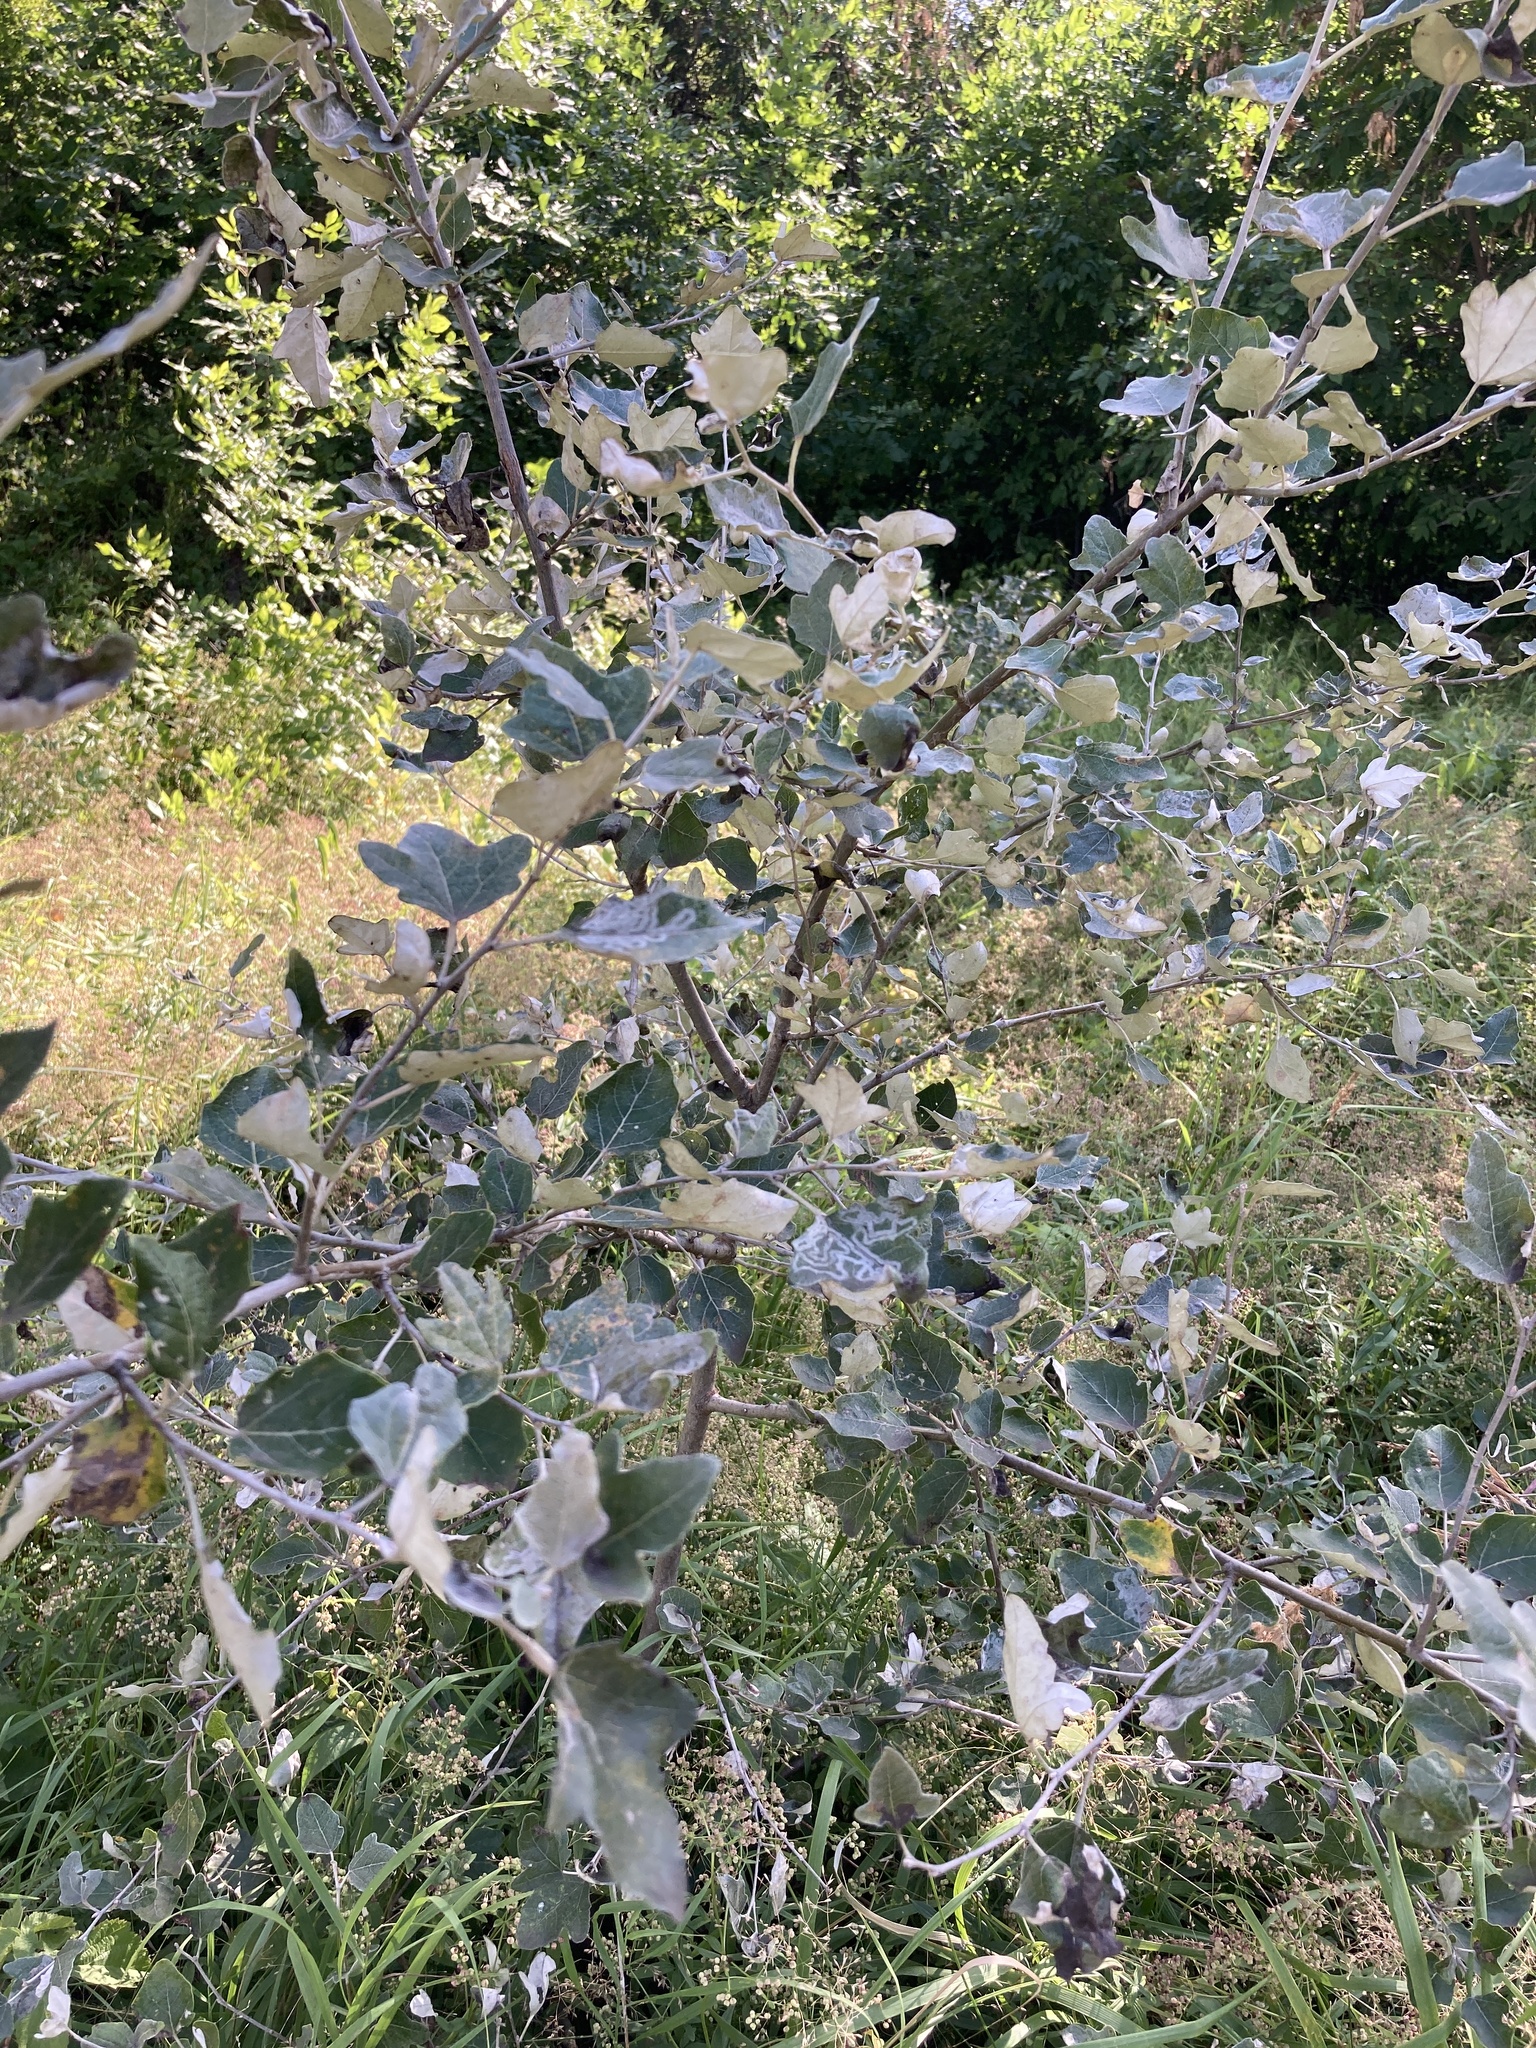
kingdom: Plantae
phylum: Tracheophyta
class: Magnoliopsida
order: Malpighiales
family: Salicaceae
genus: Populus
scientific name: Populus alba
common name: White poplar
